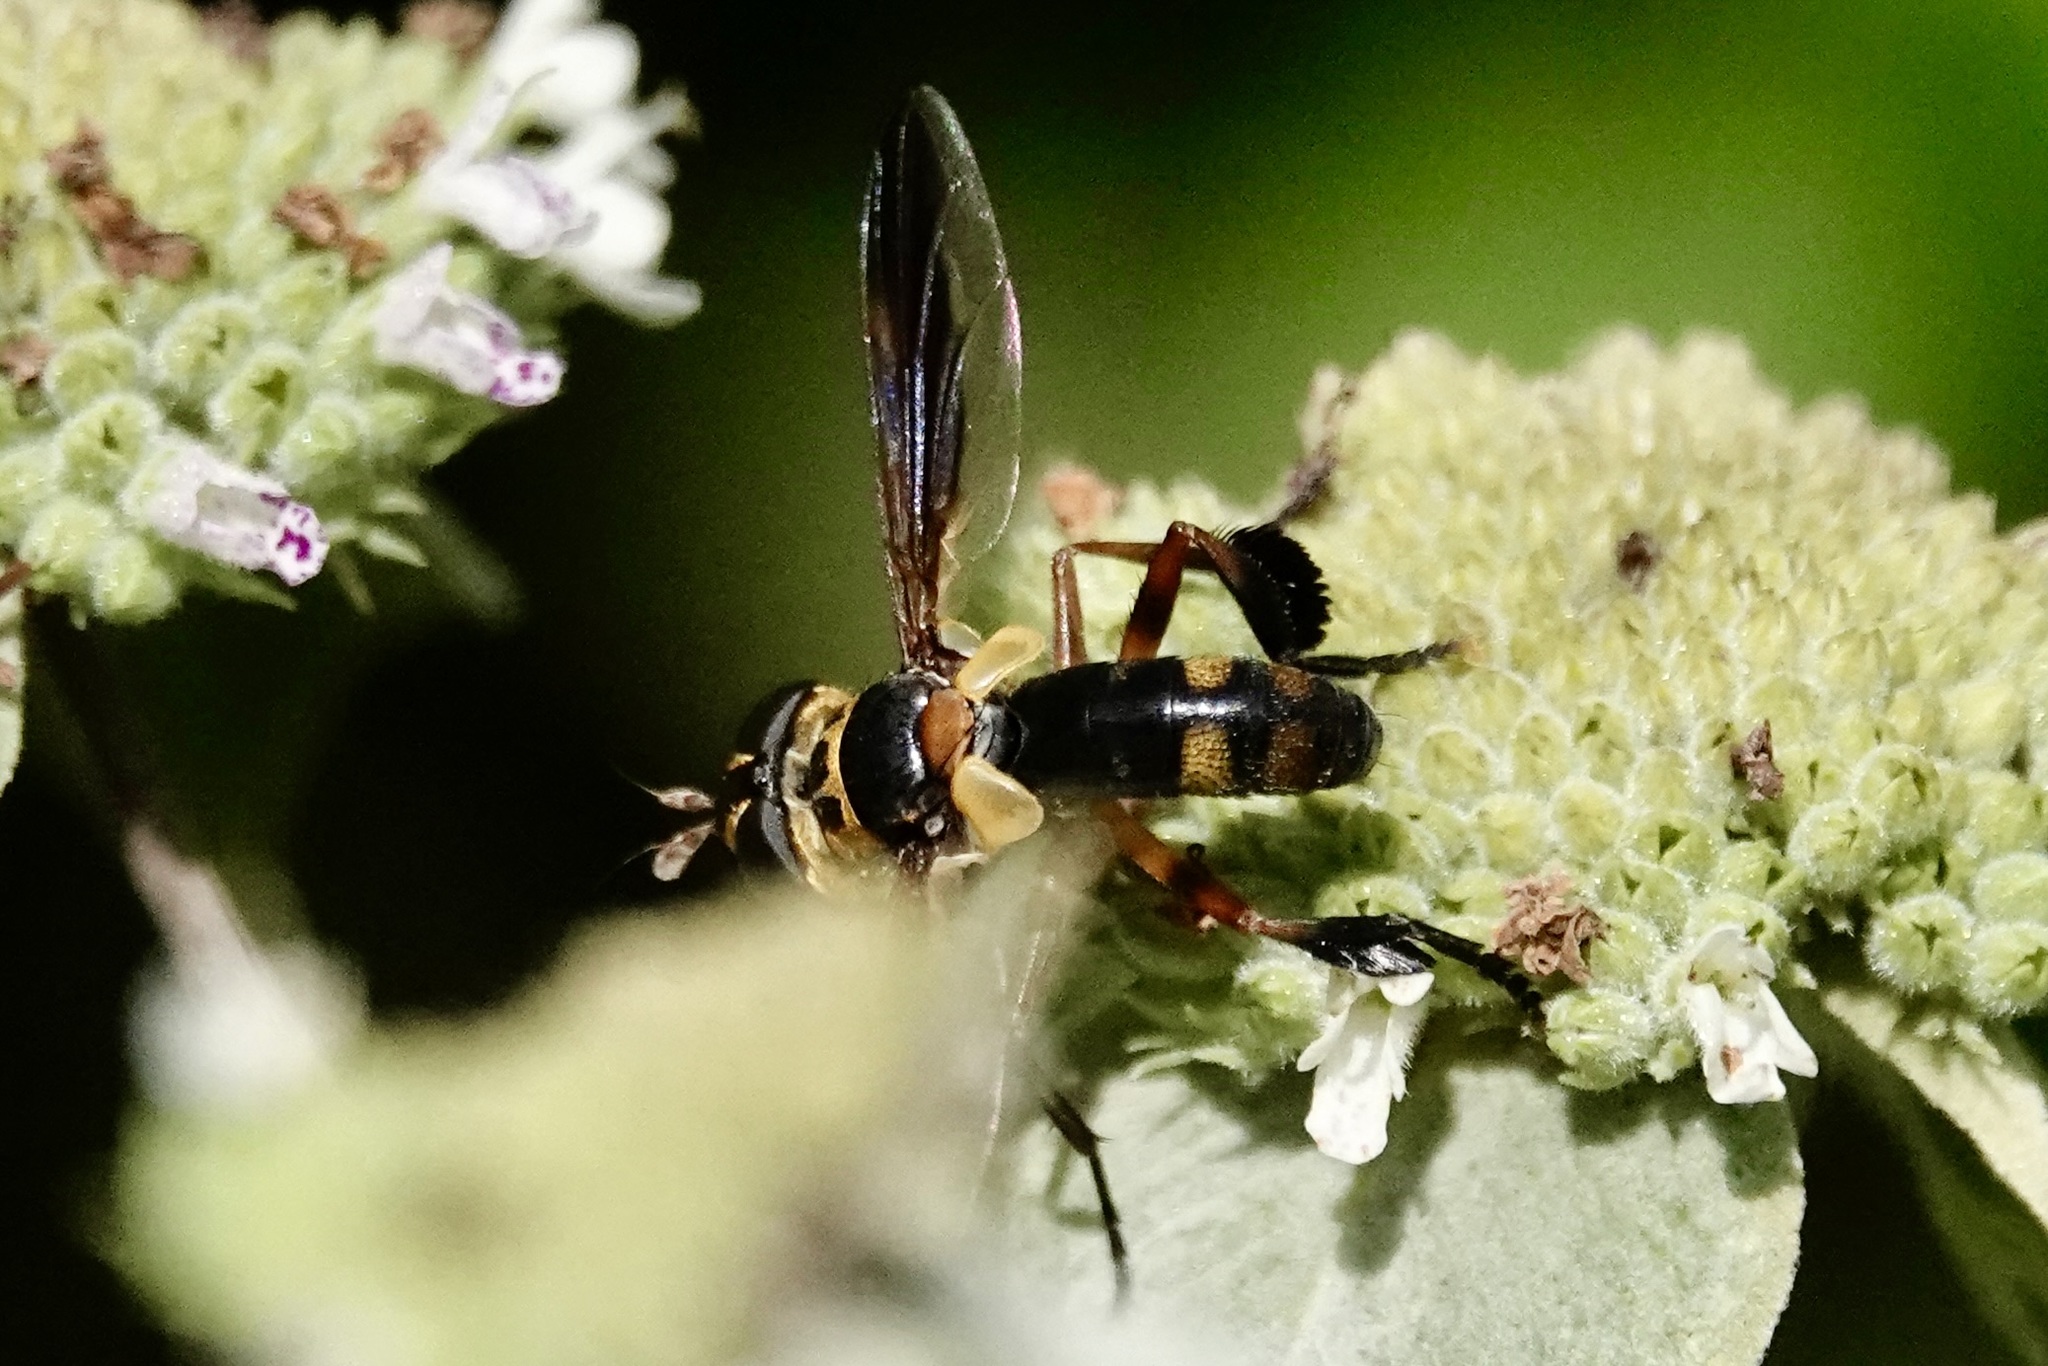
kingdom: Animalia
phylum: Arthropoda
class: Insecta
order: Diptera
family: Tachinidae
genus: Trichopoda
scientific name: Trichopoda plumipes
